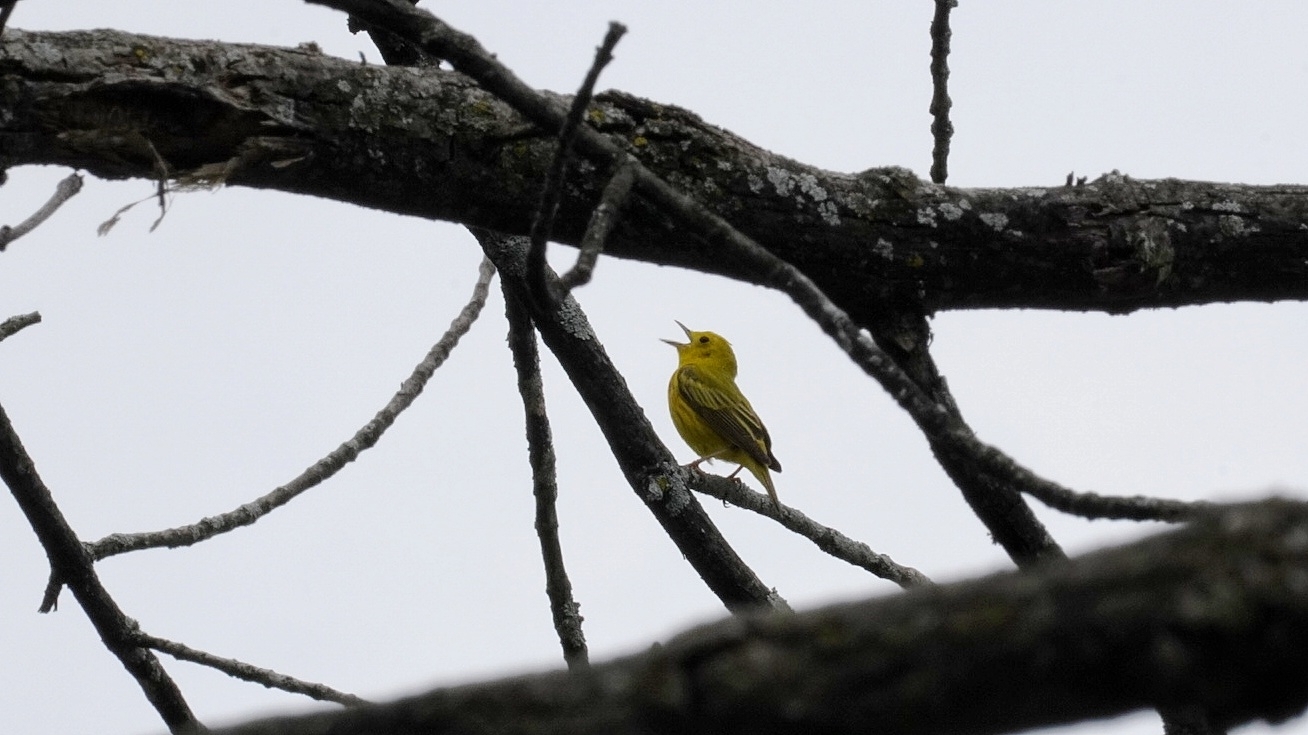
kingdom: Animalia
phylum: Chordata
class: Aves
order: Passeriformes
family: Parulidae
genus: Setophaga
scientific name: Setophaga petechia
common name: Yellow warbler
